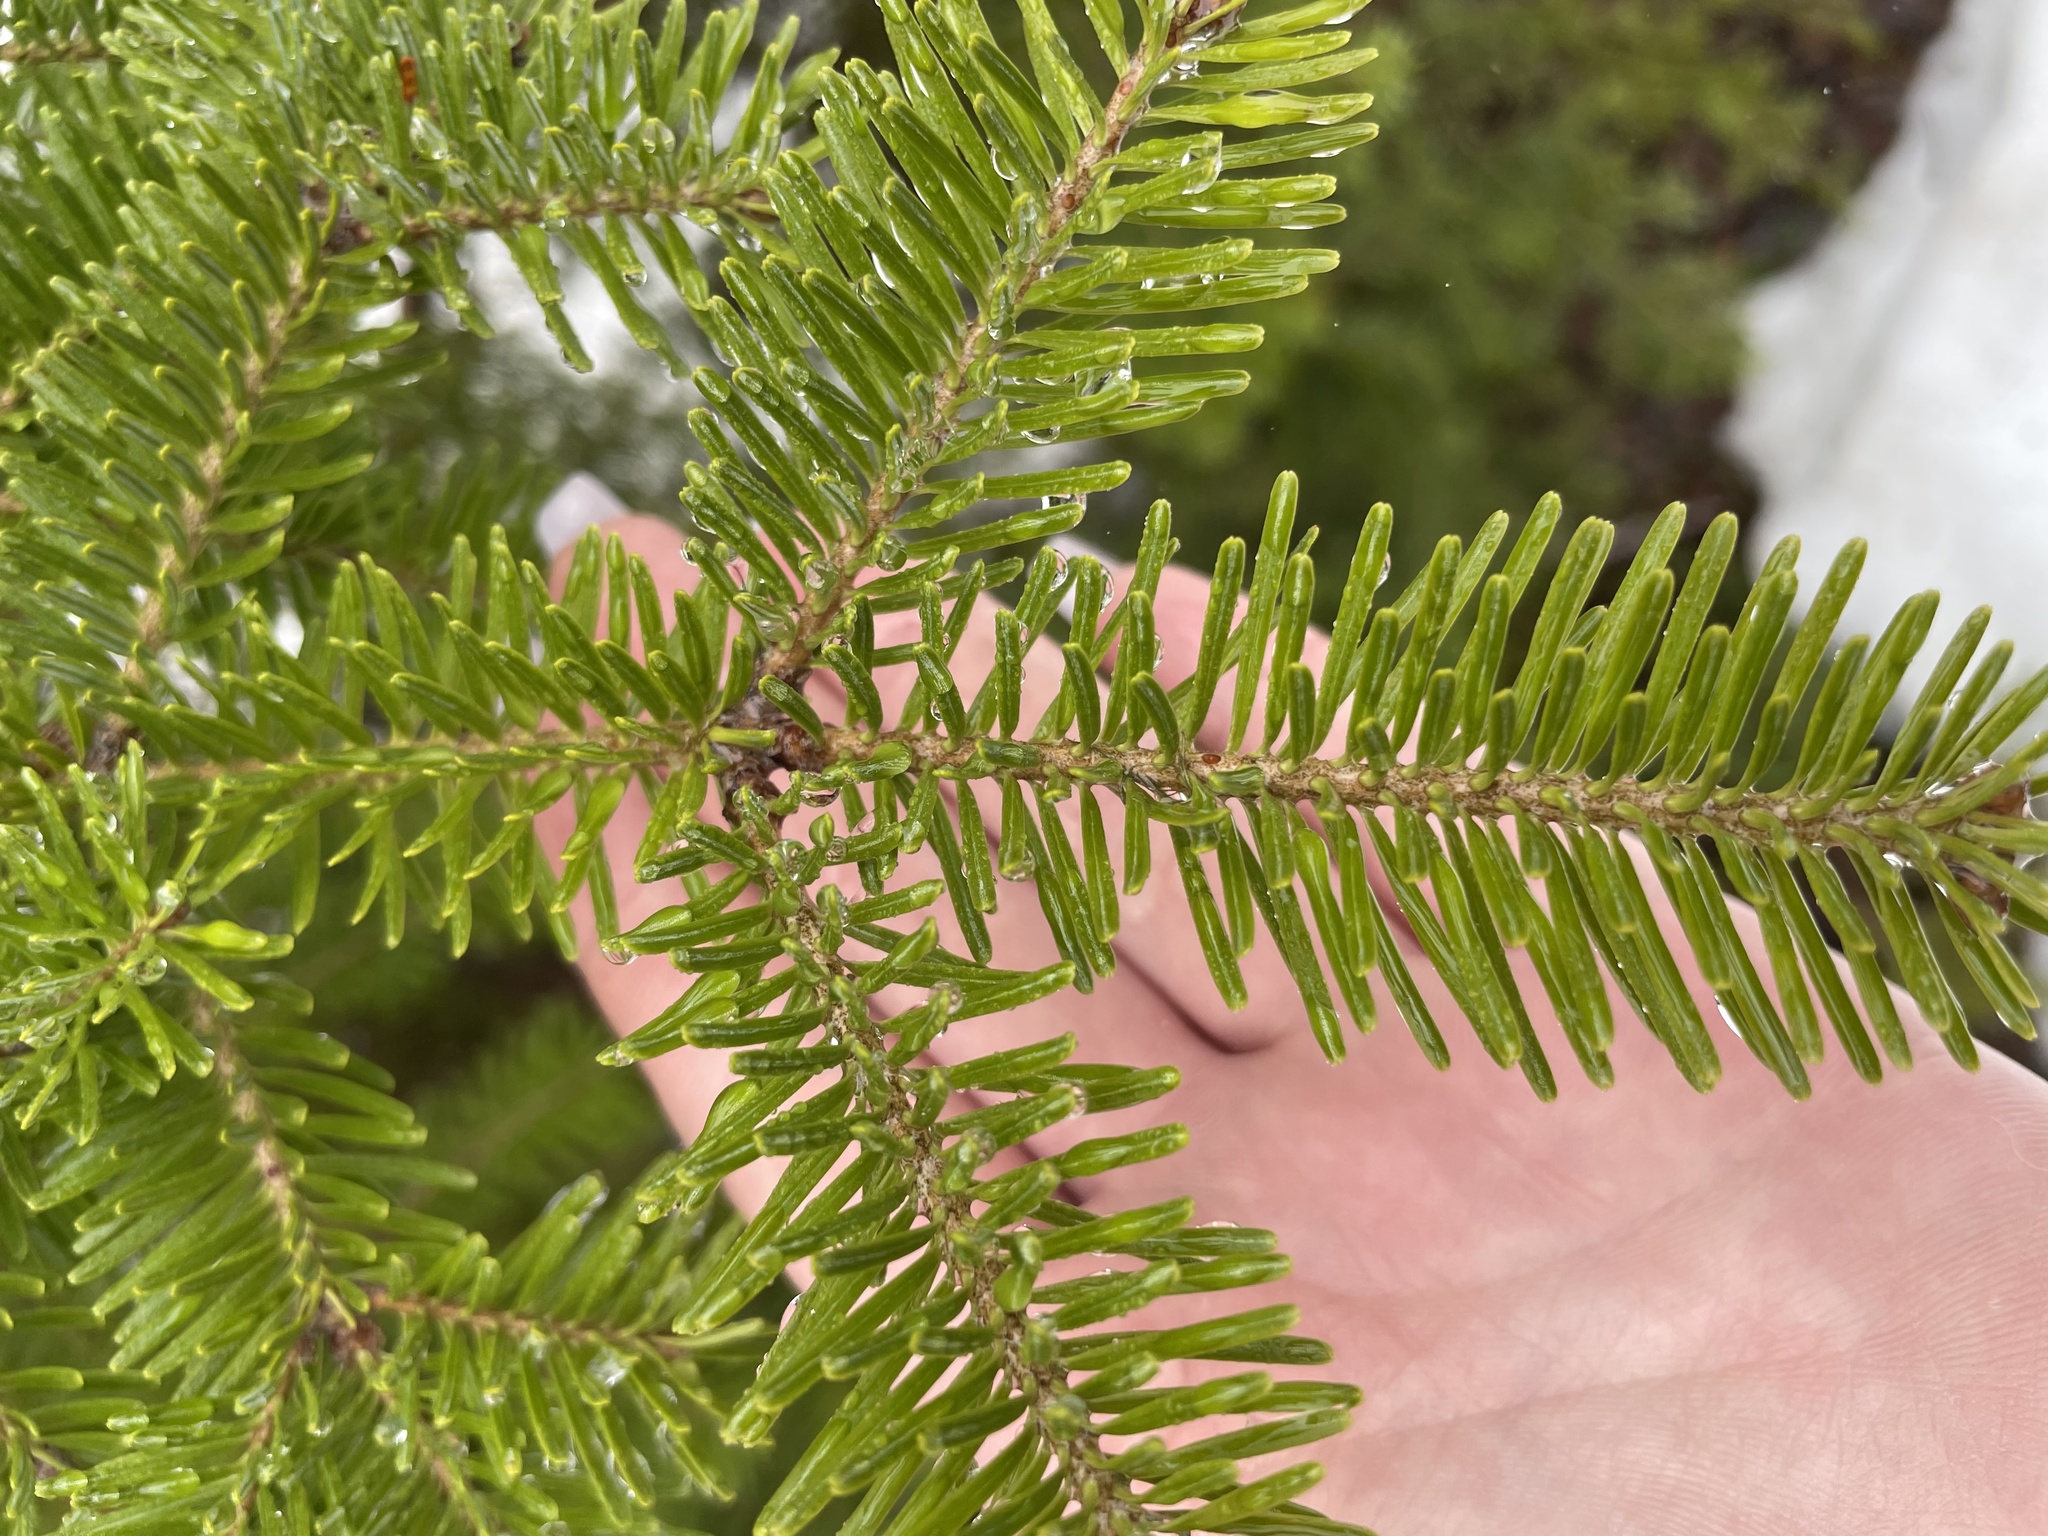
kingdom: Plantae
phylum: Tracheophyta
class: Pinopsida
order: Pinales
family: Pinaceae
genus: Abies
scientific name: Abies balsamea
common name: Balsam fir
